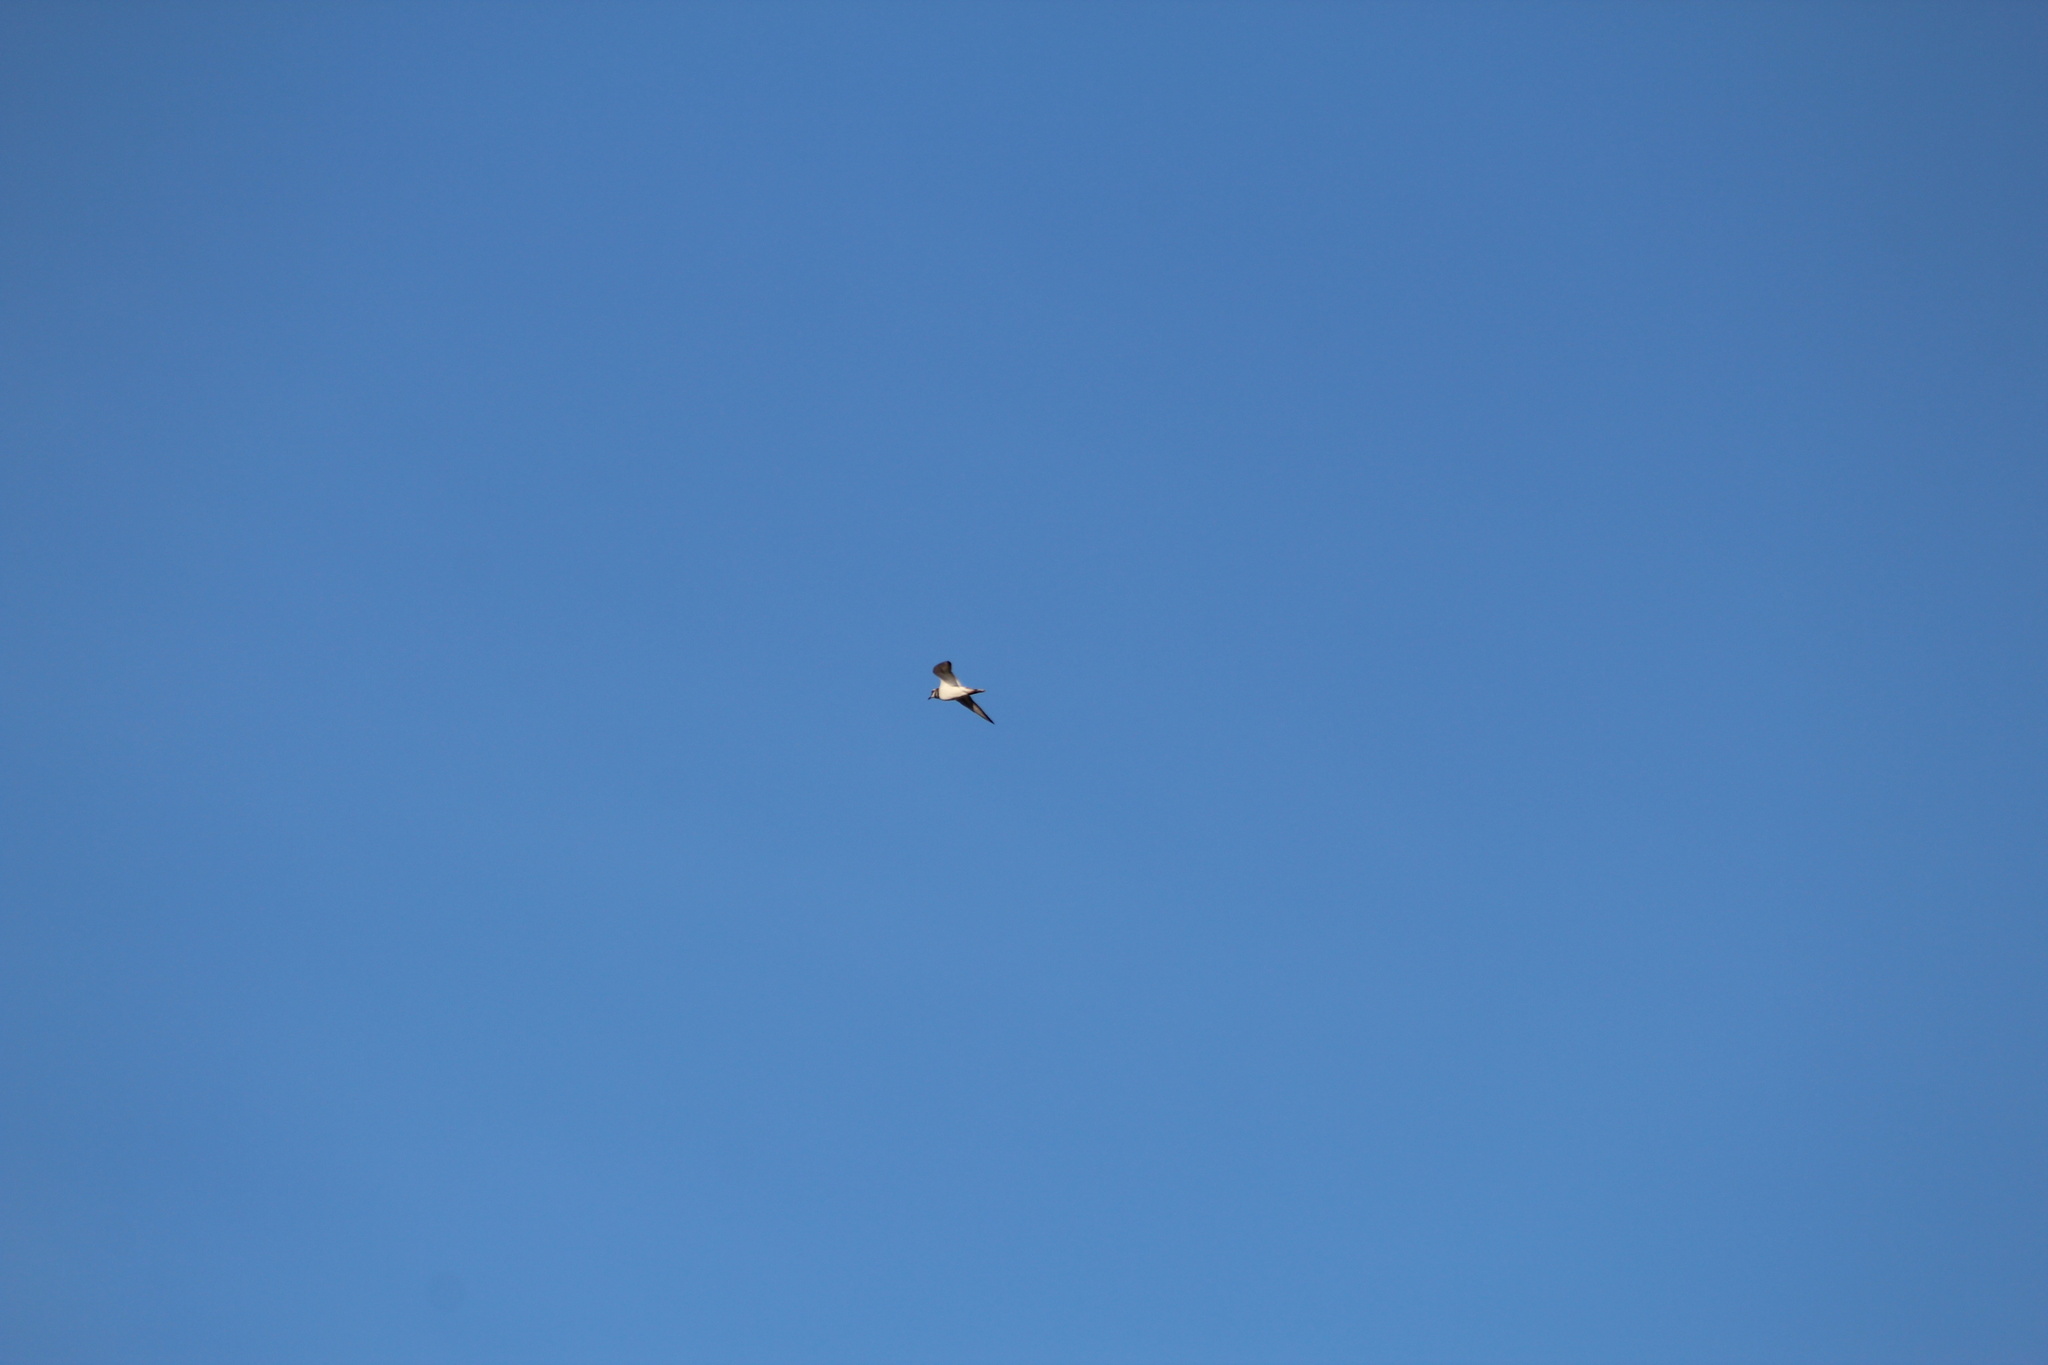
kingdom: Animalia
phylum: Chordata
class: Aves
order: Charadriiformes
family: Charadriidae
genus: Charadrius
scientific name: Charadrius vociferus
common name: Killdeer
